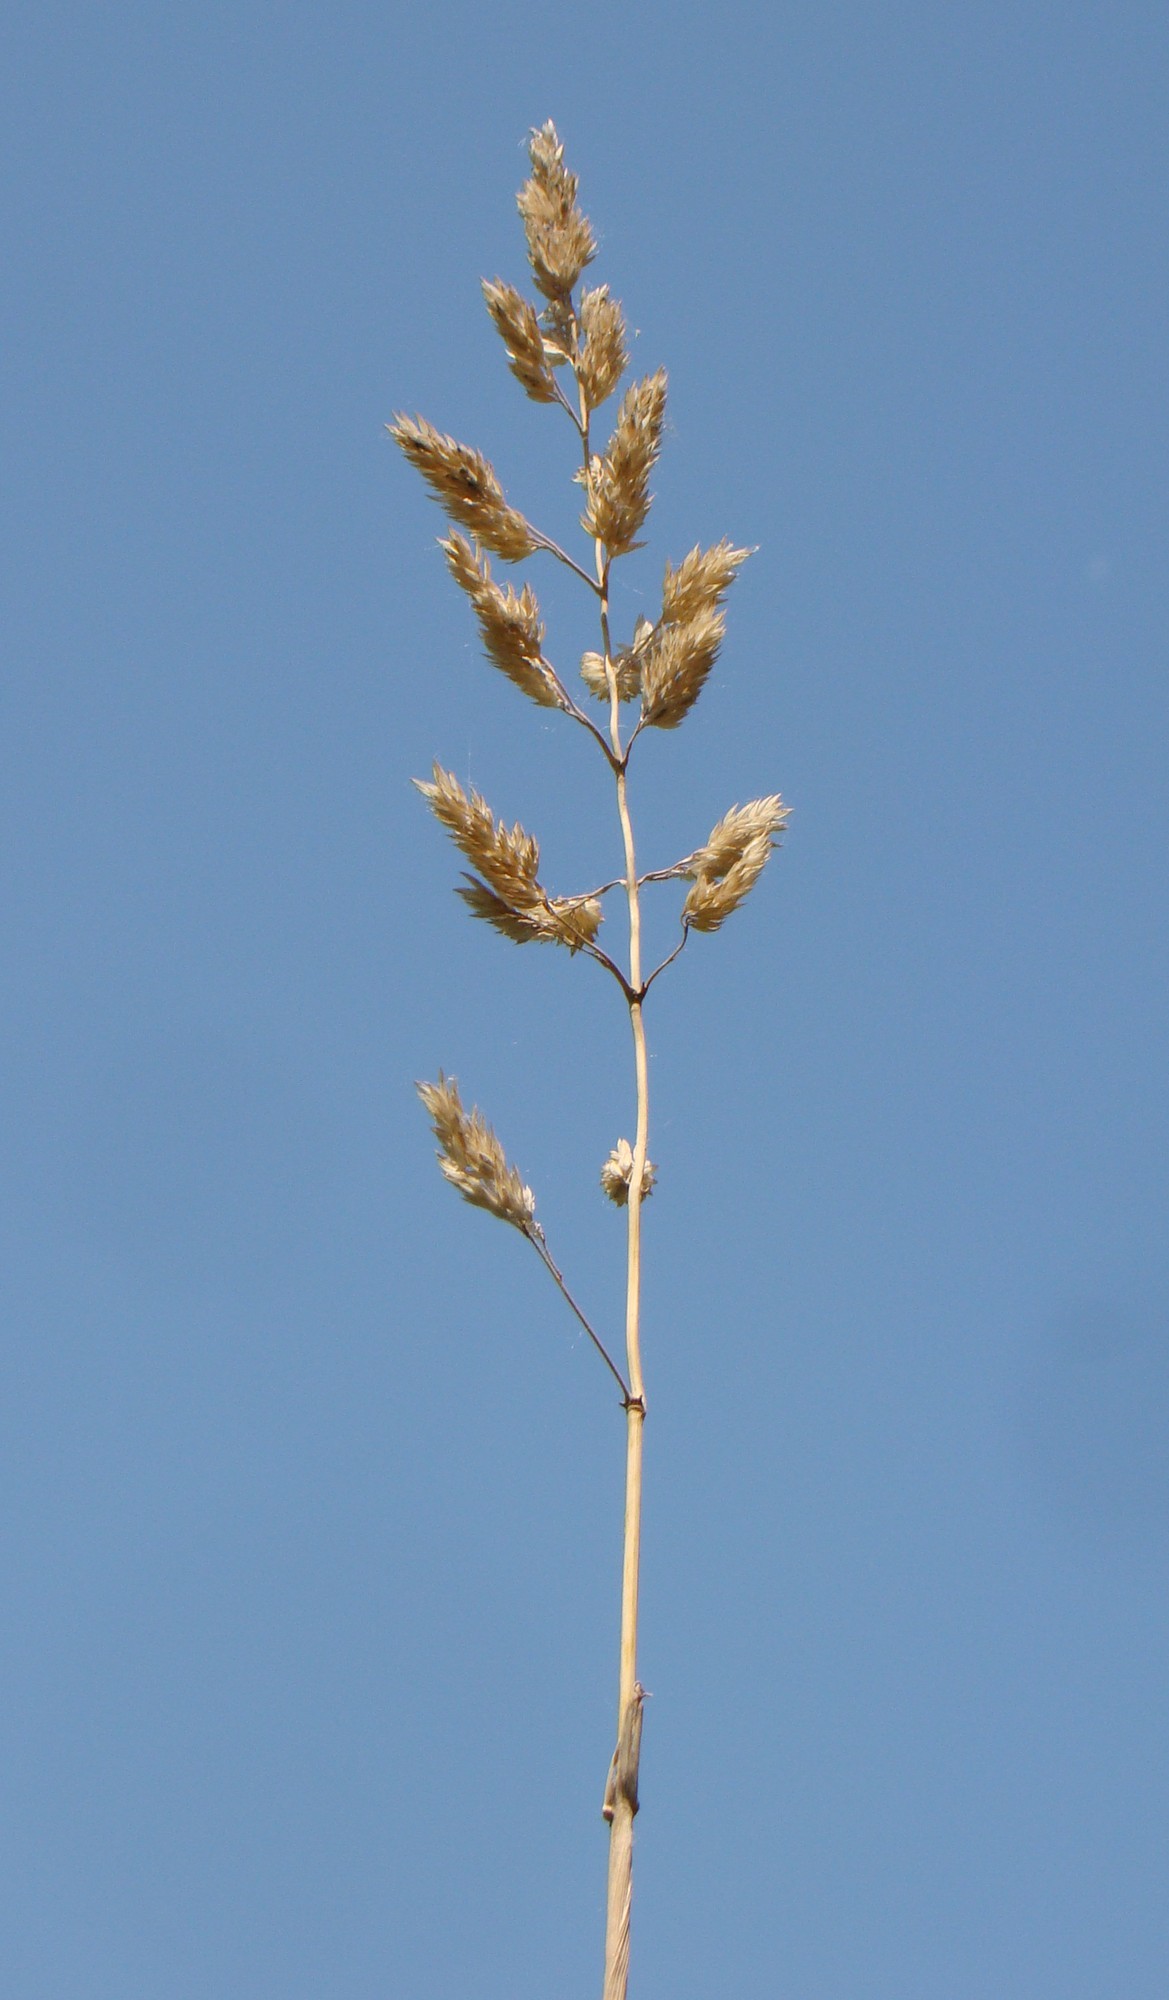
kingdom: Plantae
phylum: Tracheophyta
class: Liliopsida
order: Poales
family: Poaceae
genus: Phalaris
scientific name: Phalaris arundinacea
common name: Reed canary-grass
